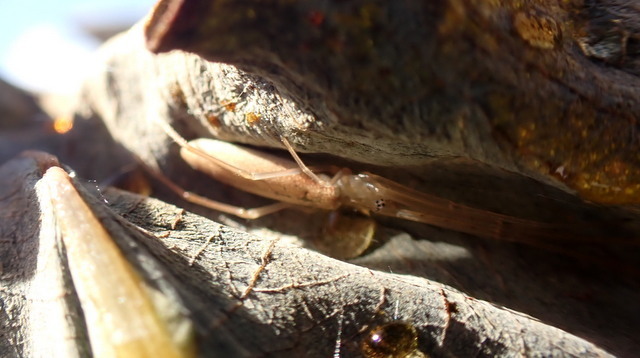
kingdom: Animalia
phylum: Arthropoda
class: Arachnida
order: Araneae
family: Tetragnathidae
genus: Tetragnatha
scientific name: Tetragnatha
